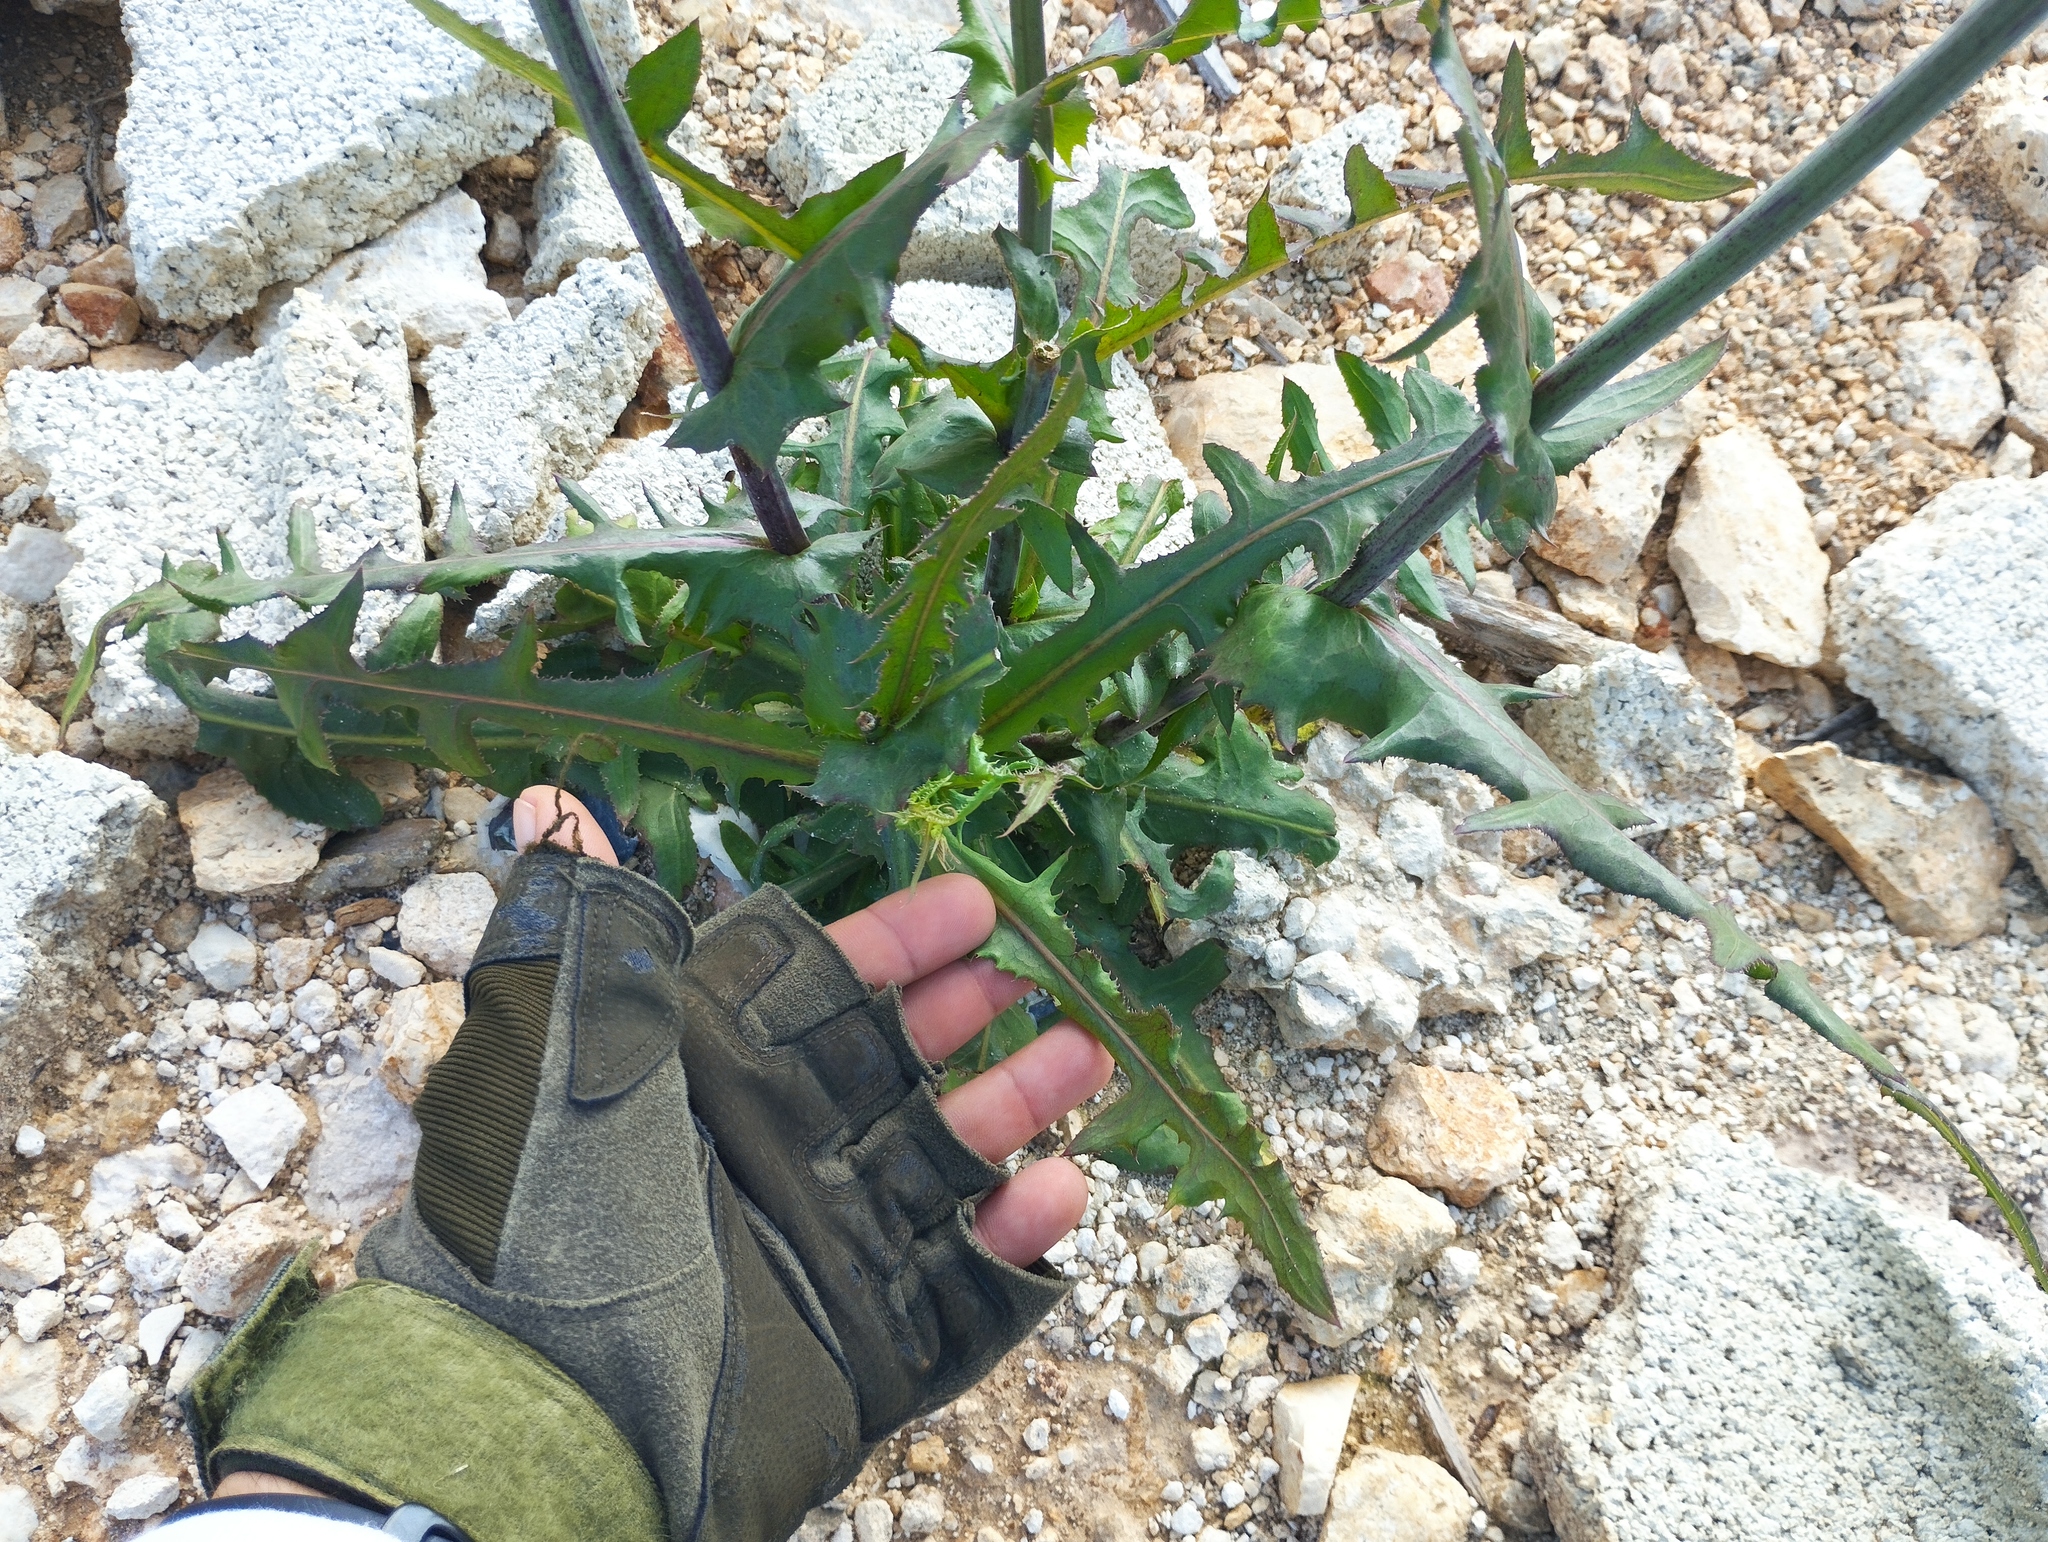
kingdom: Plantae
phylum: Tracheophyta
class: Magnoliopsida
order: Asterales
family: Asteraceae
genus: Launaea
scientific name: Launaea intybacea
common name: Achicoria azul
